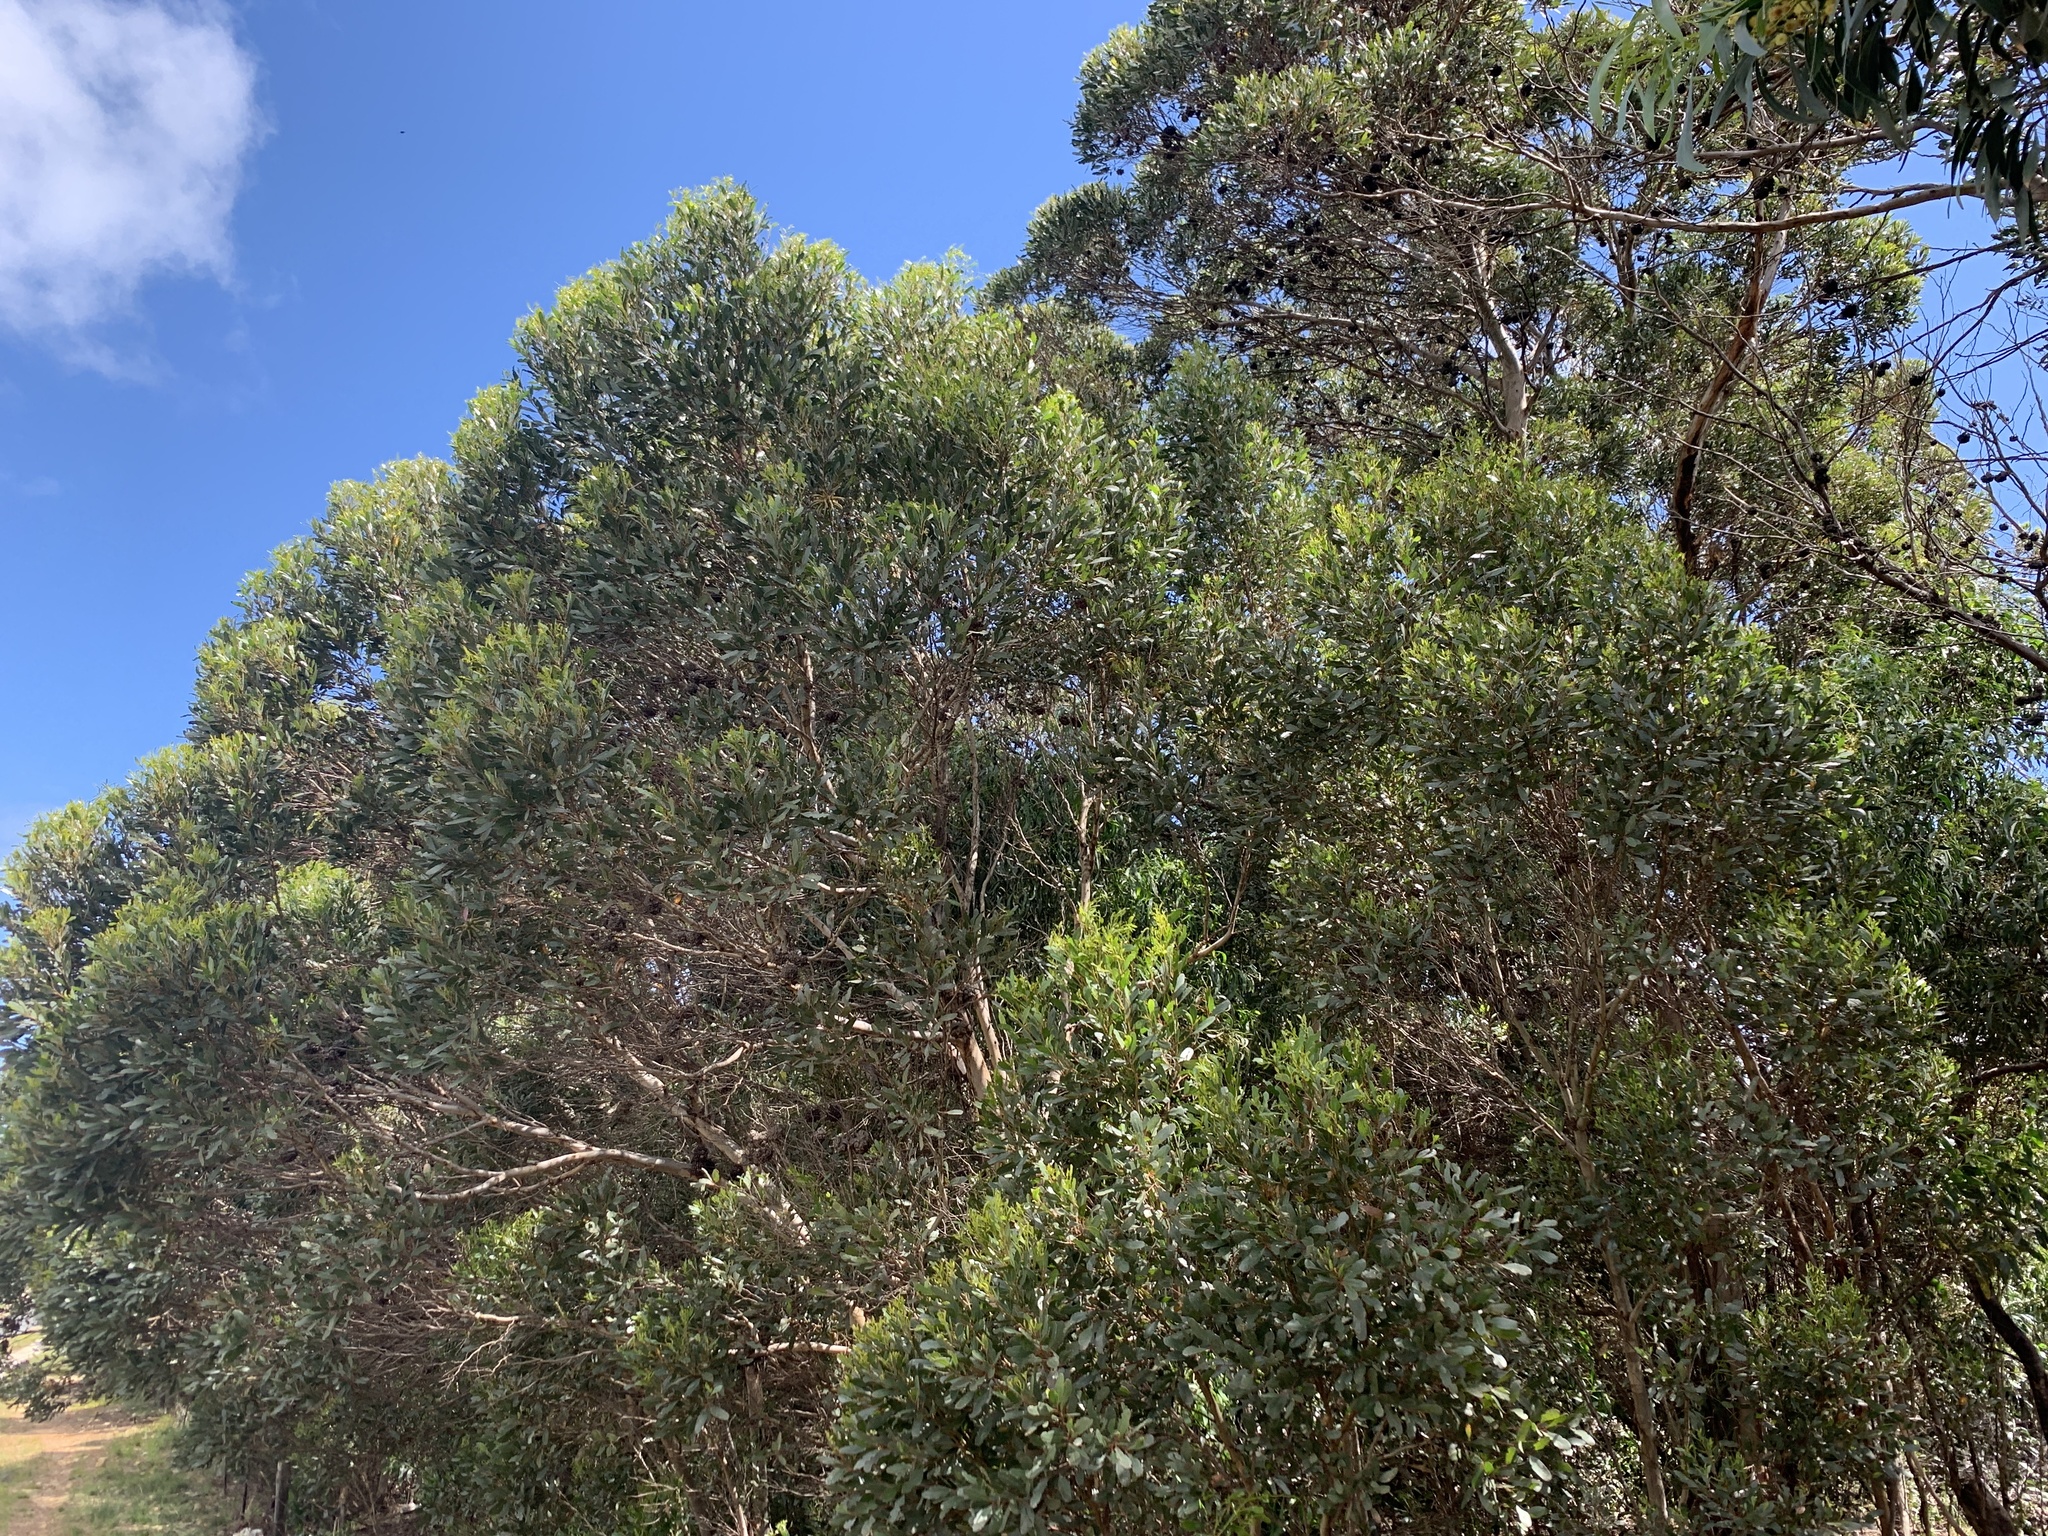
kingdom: Plantae
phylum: Tracheophyta
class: Magnoliopsida
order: Myrtales
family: Myrtaceae
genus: Eucalyptus
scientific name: Eucalyptus conferruminata
